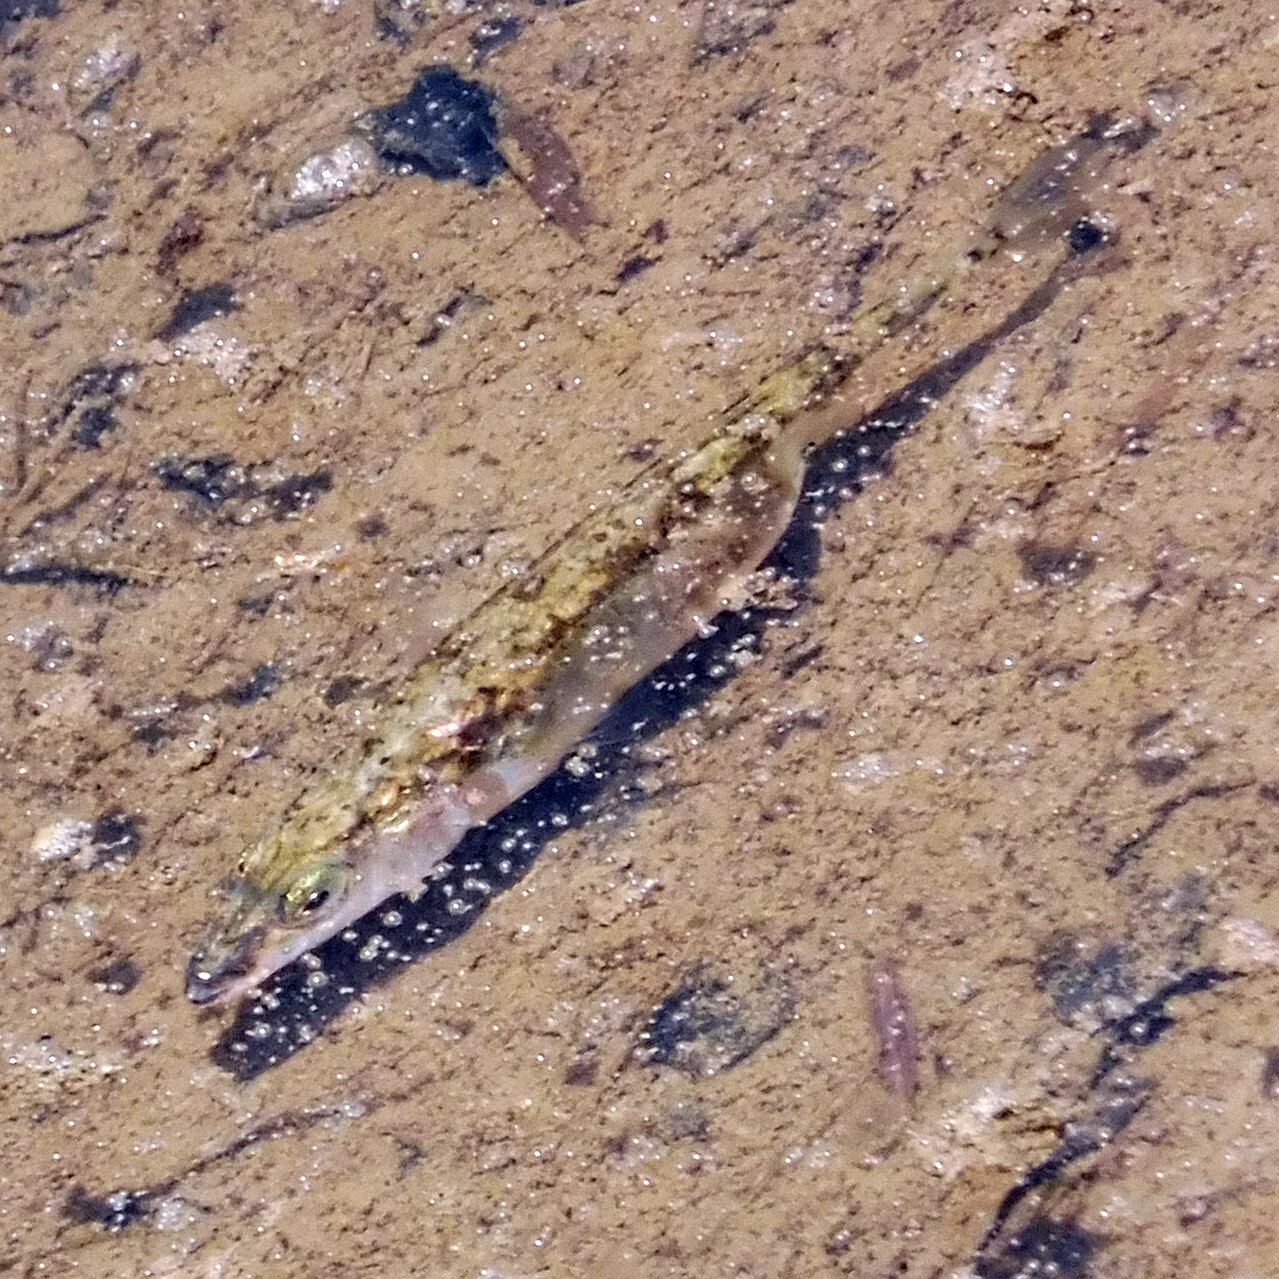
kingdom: Animalia
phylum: Chordata
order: Gasterosteiformes
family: Gasterosteidae
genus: Gasterosteus
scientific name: Gasterosteus aculeatus
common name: Three-spined stickleback
